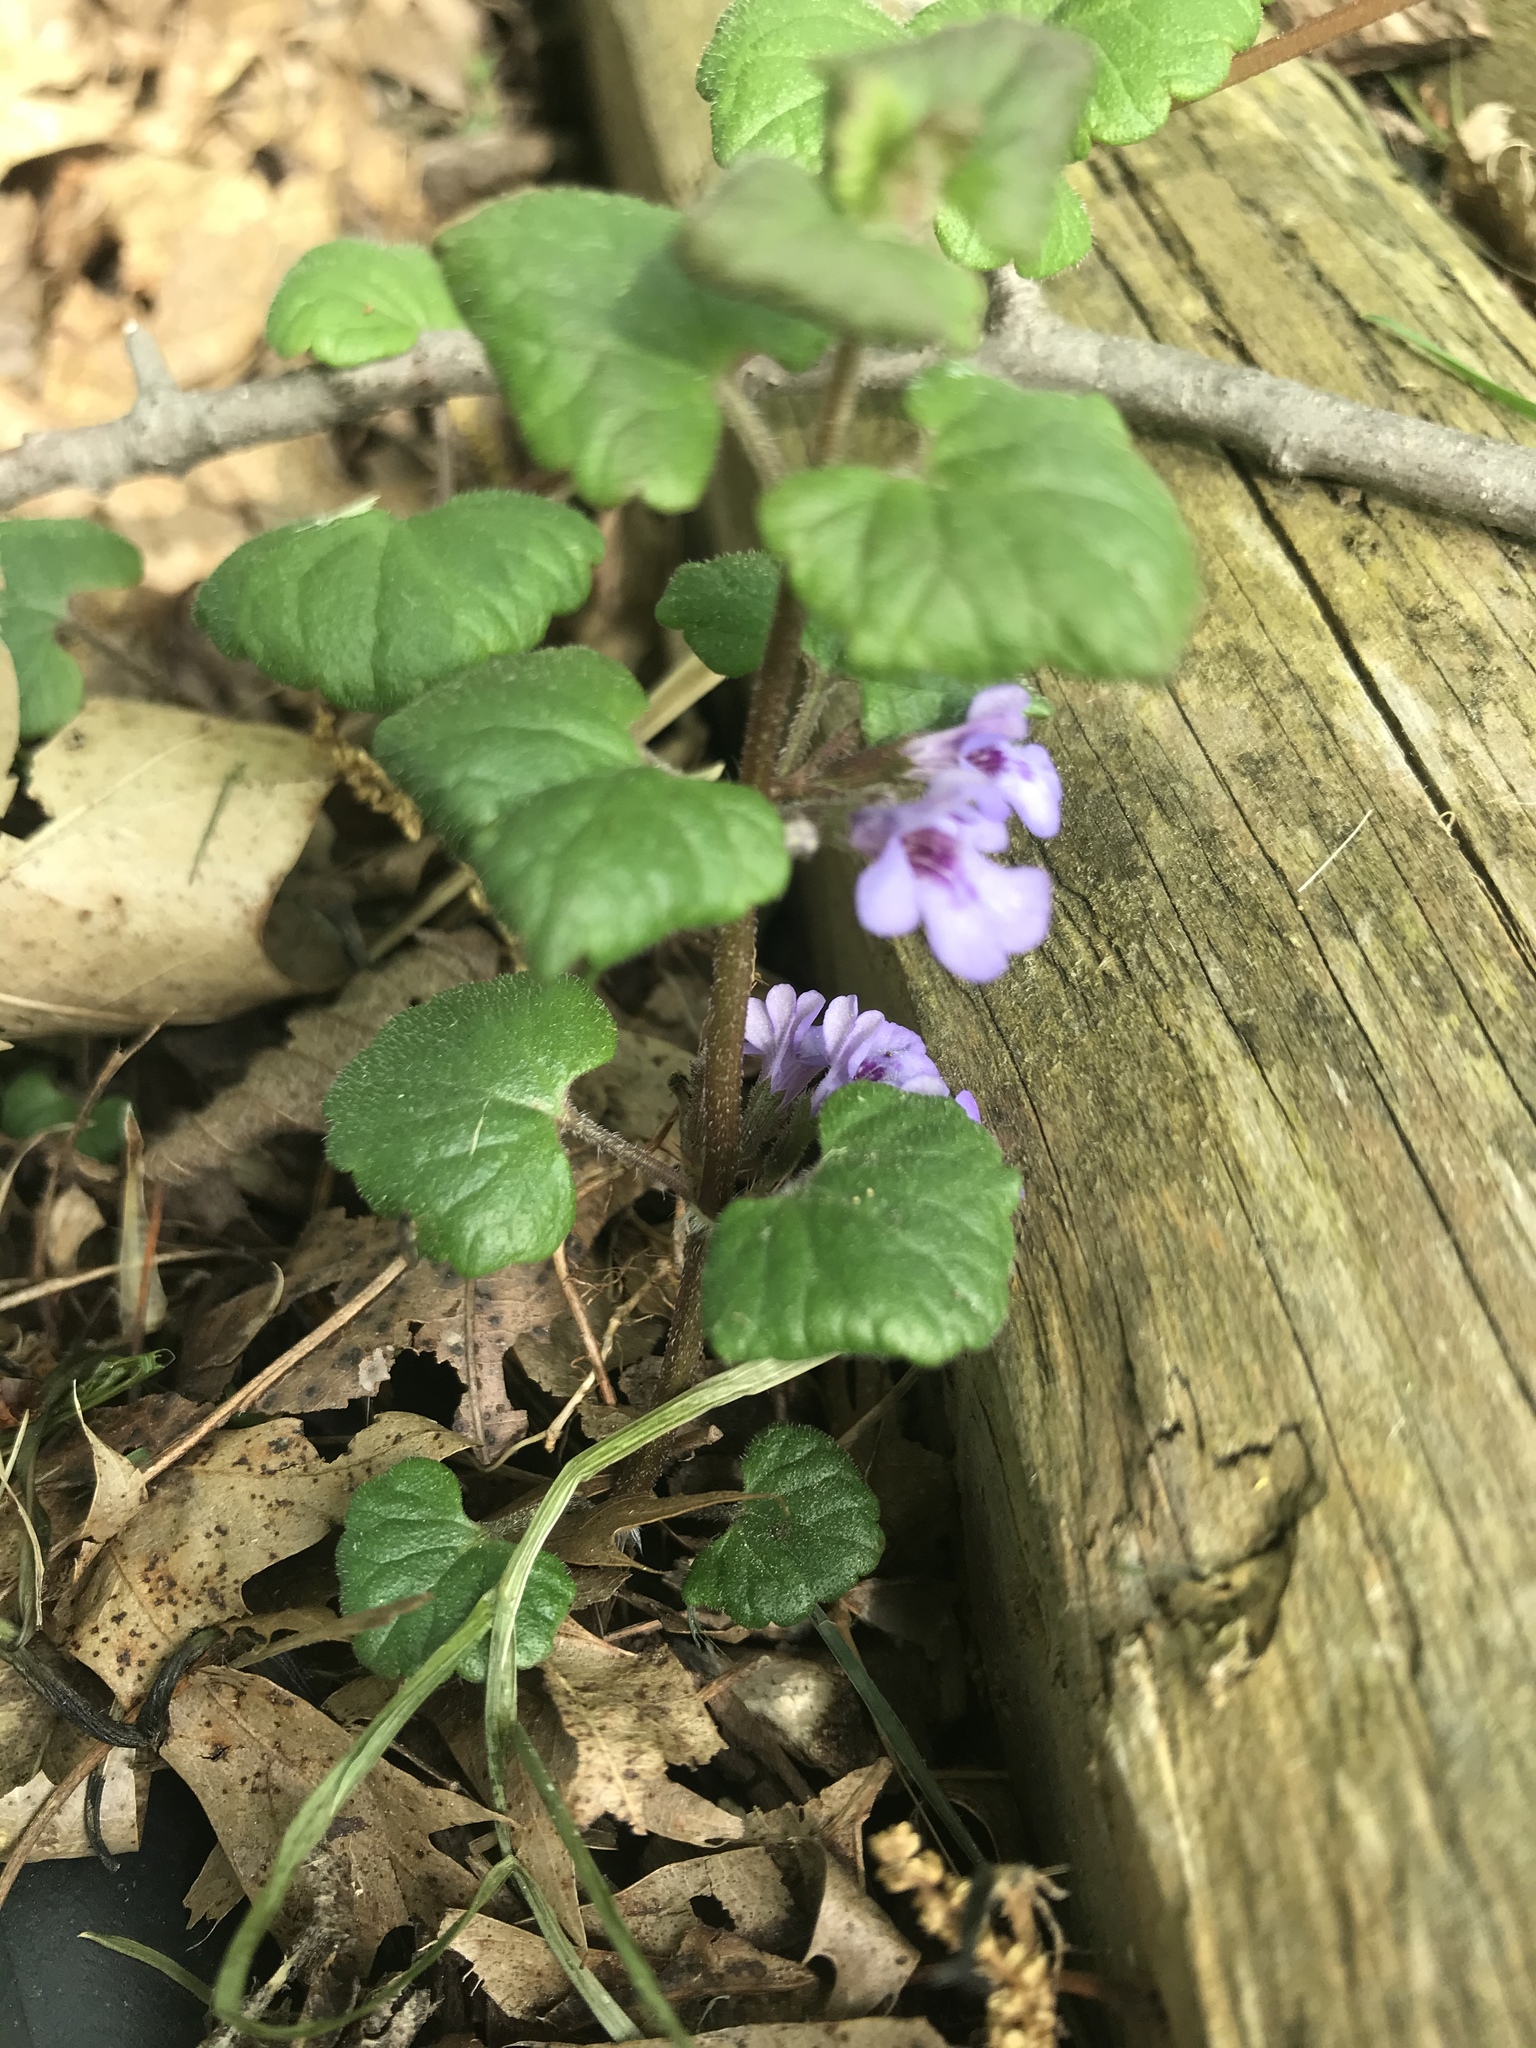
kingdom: Plantae
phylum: Tracheophyta
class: Magnoliopsida
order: Lamiales
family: Lamiaceae
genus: Glechoma
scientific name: Glechoma hederacea
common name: Ground ivy
